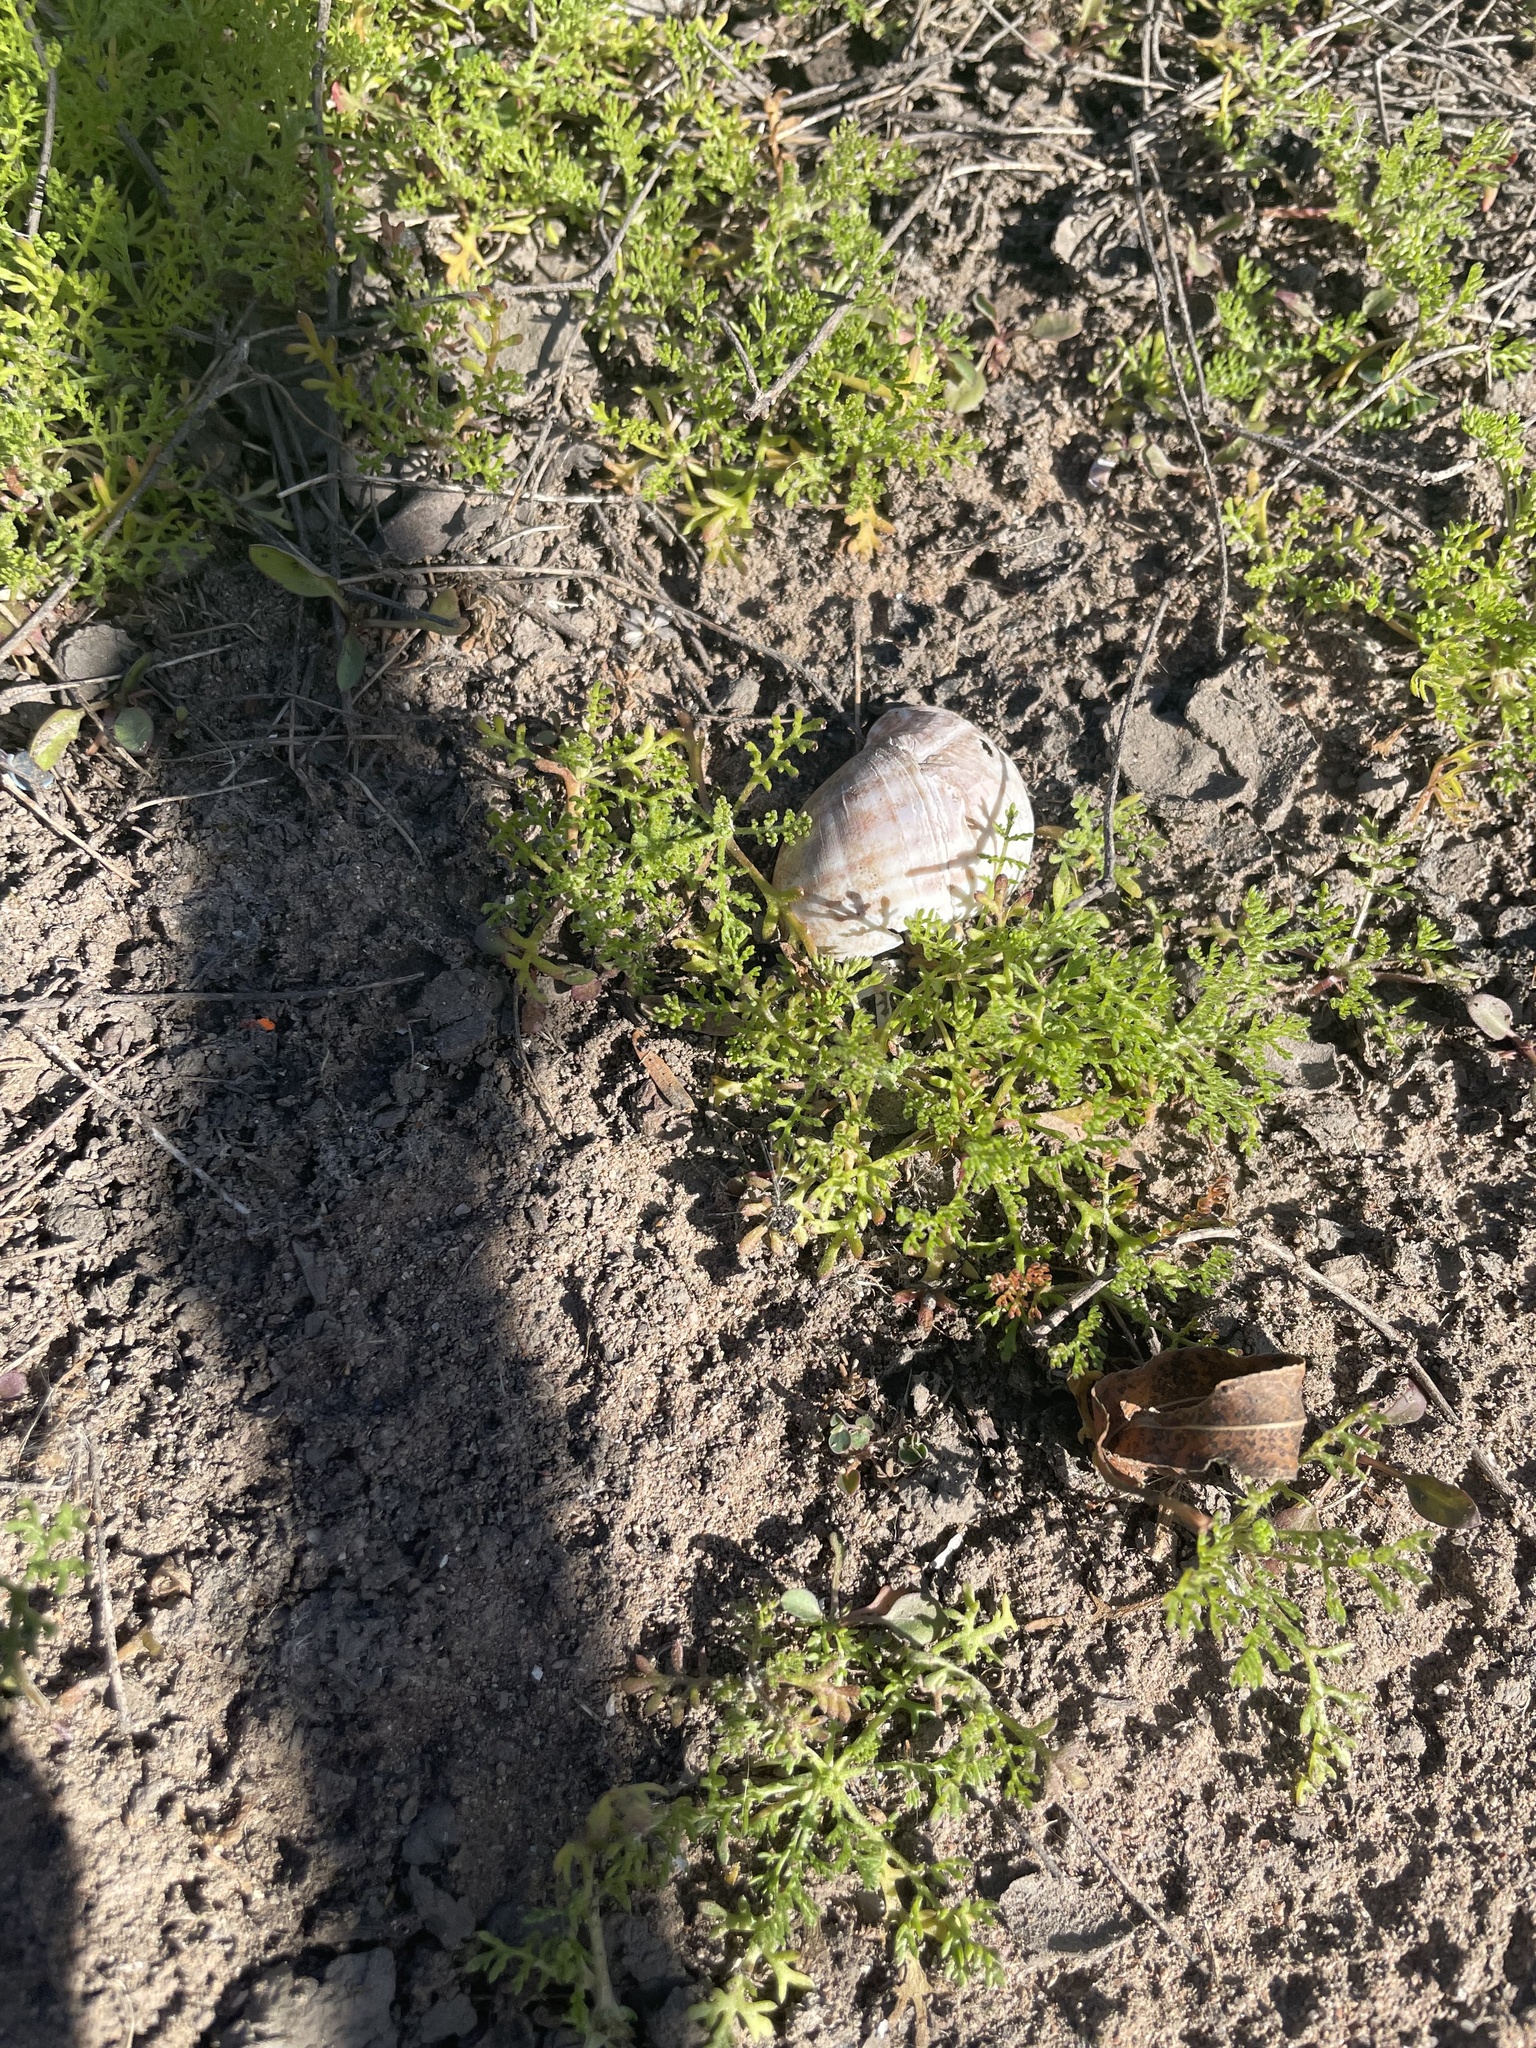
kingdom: Animalia
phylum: Mollusca
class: Gastropoda
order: Architaenioglossa
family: Ampullariidae
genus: Pomacea
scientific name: Pomacea canaliculata
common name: Channeled applesnail
